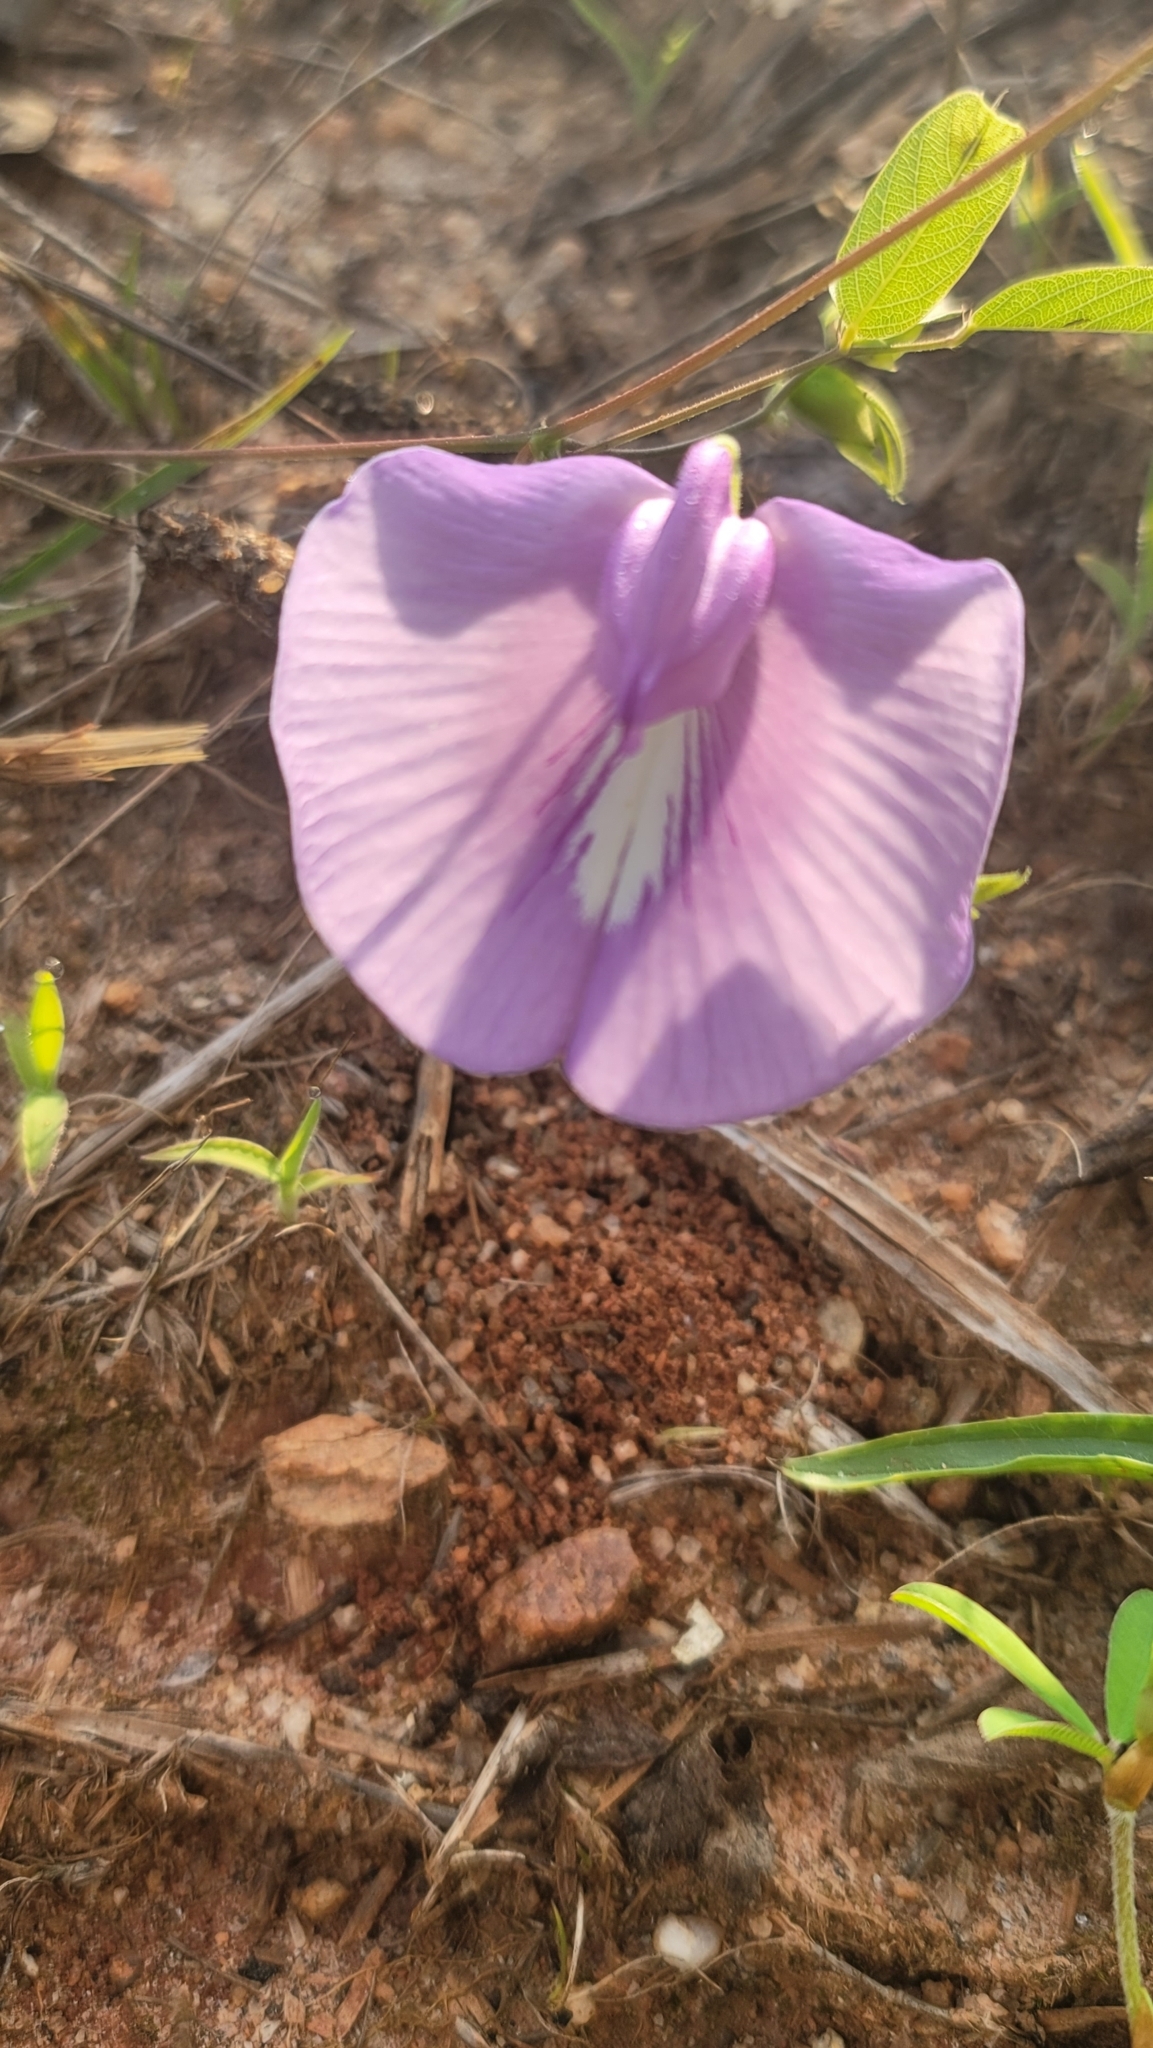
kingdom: Plantae
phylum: Tracheophyta
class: Magnoliopsida
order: Fabales
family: Fabaceae
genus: Centrosema
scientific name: Centrosema virginianum
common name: Butterfly-pea
